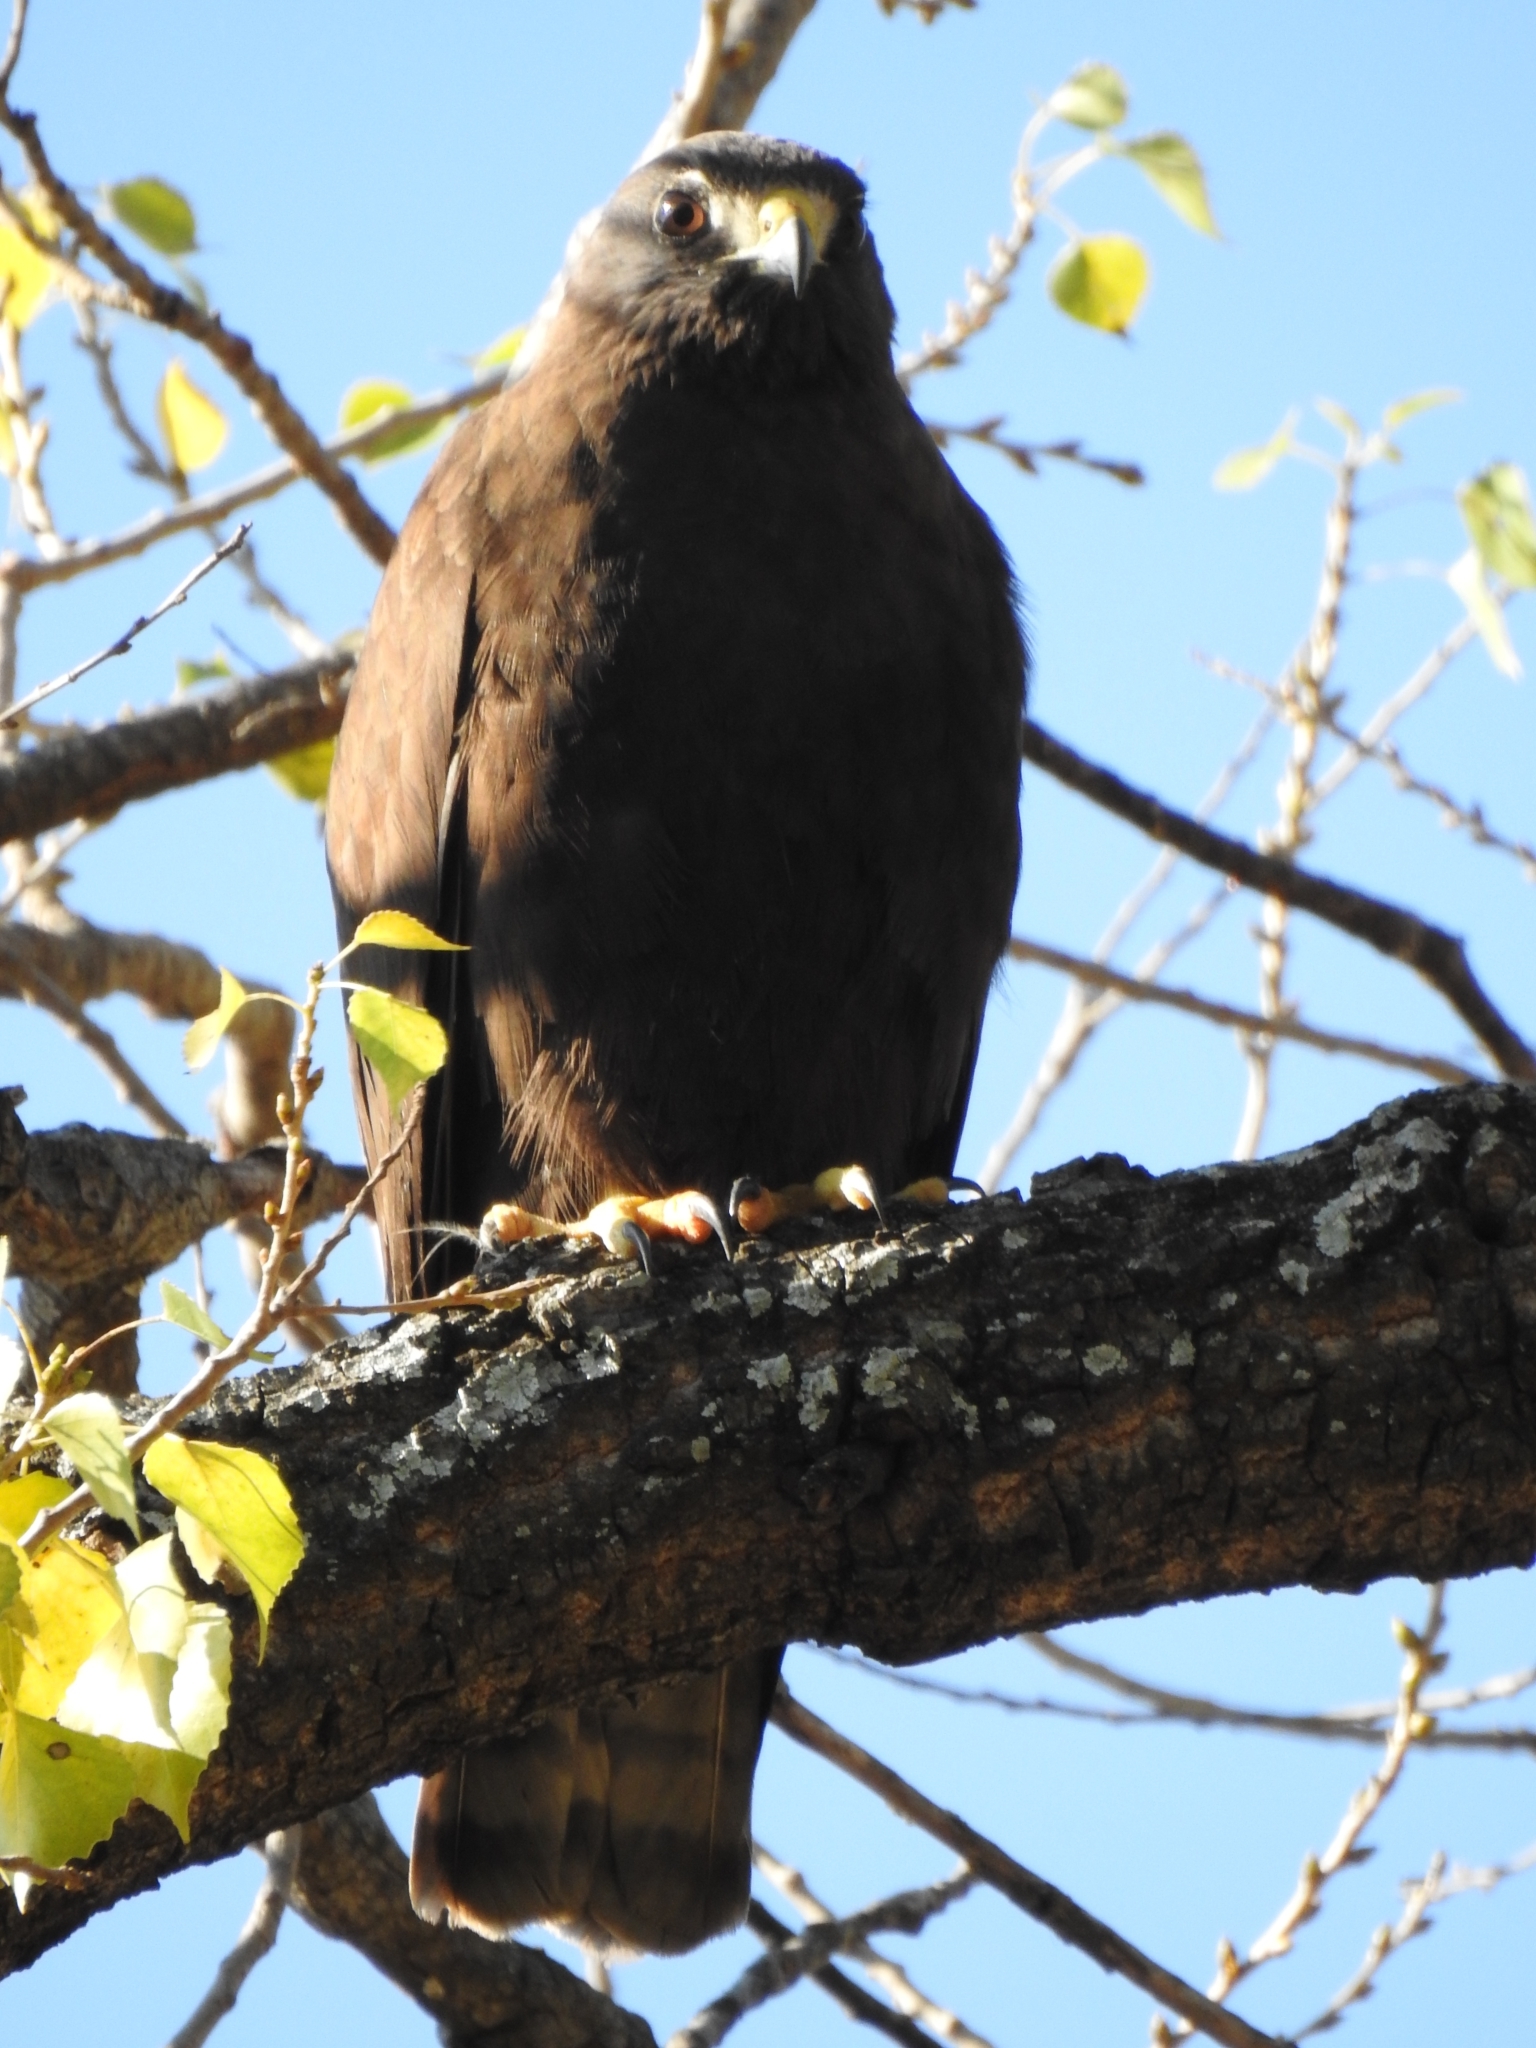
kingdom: Animalia
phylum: Chordata
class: Aves
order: Accipitriformes
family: Accipitridae
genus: Buteo
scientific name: Buteo brachyurus
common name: Short-tailed hawk
